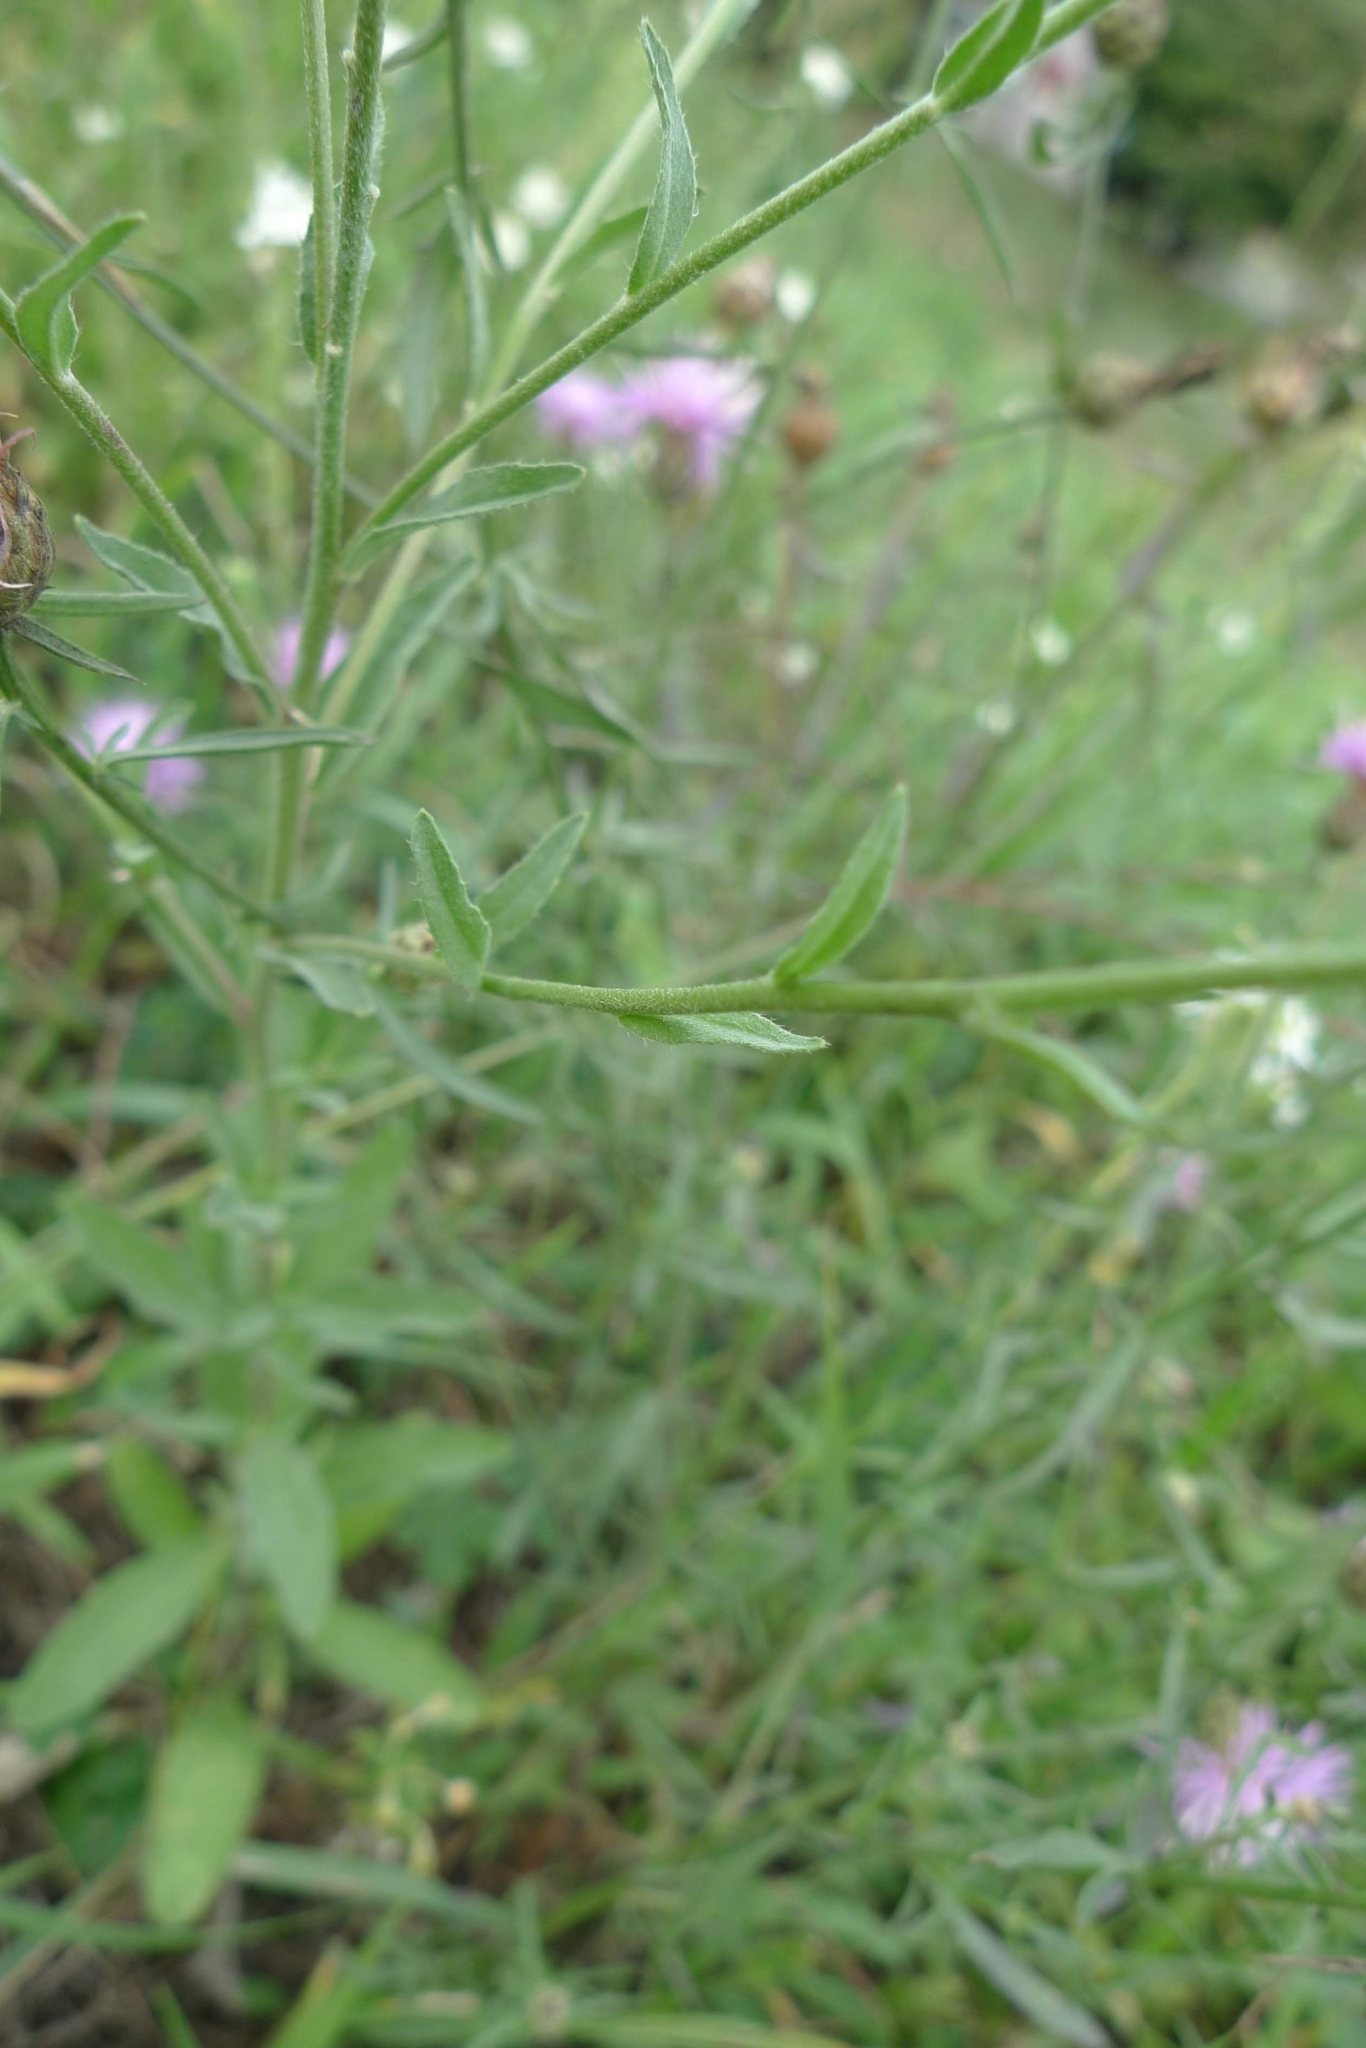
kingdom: Plantae
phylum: Tracheophyta
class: Magnoliopsida
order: Brassicales
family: Brassicaceae
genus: Berteroa
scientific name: Berteroa incana
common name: Hoary alison
